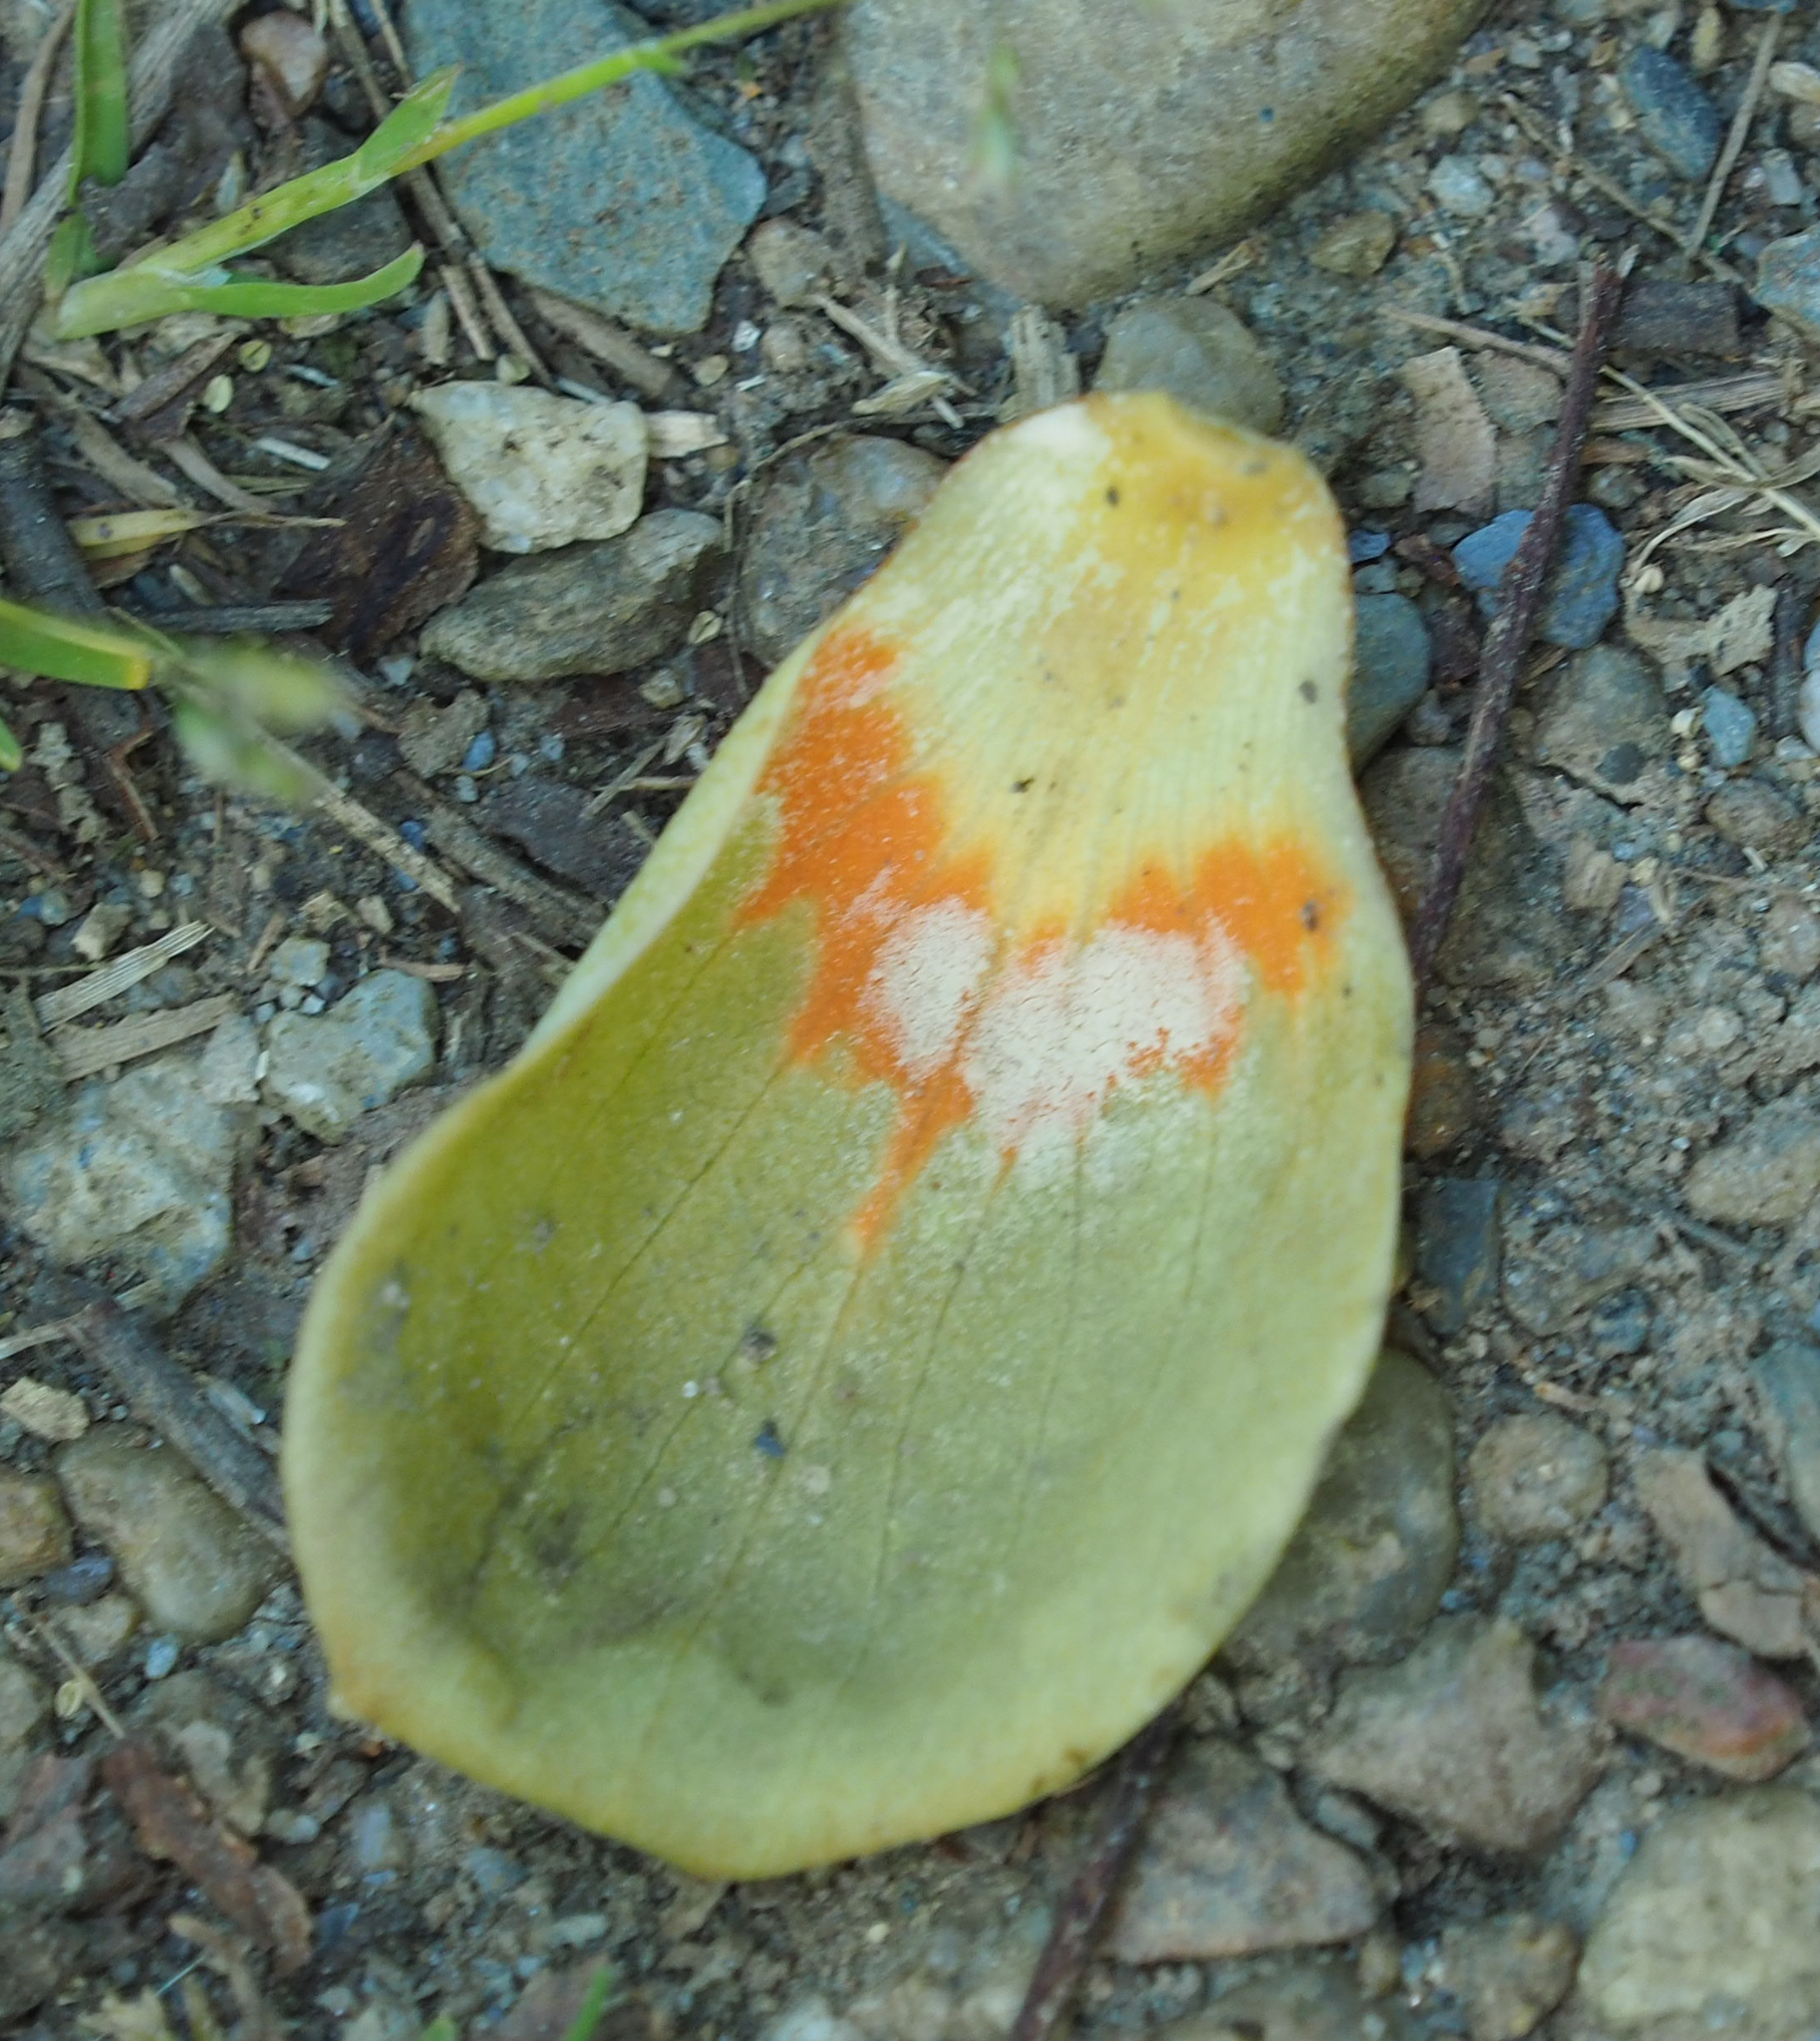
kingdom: Plantae
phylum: Tracheophyta
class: Magnoliopsida
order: Magnoliales
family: Magnoliaceae
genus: Liriodendron
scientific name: Liriodendron tulipifera
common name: Tulip tree
